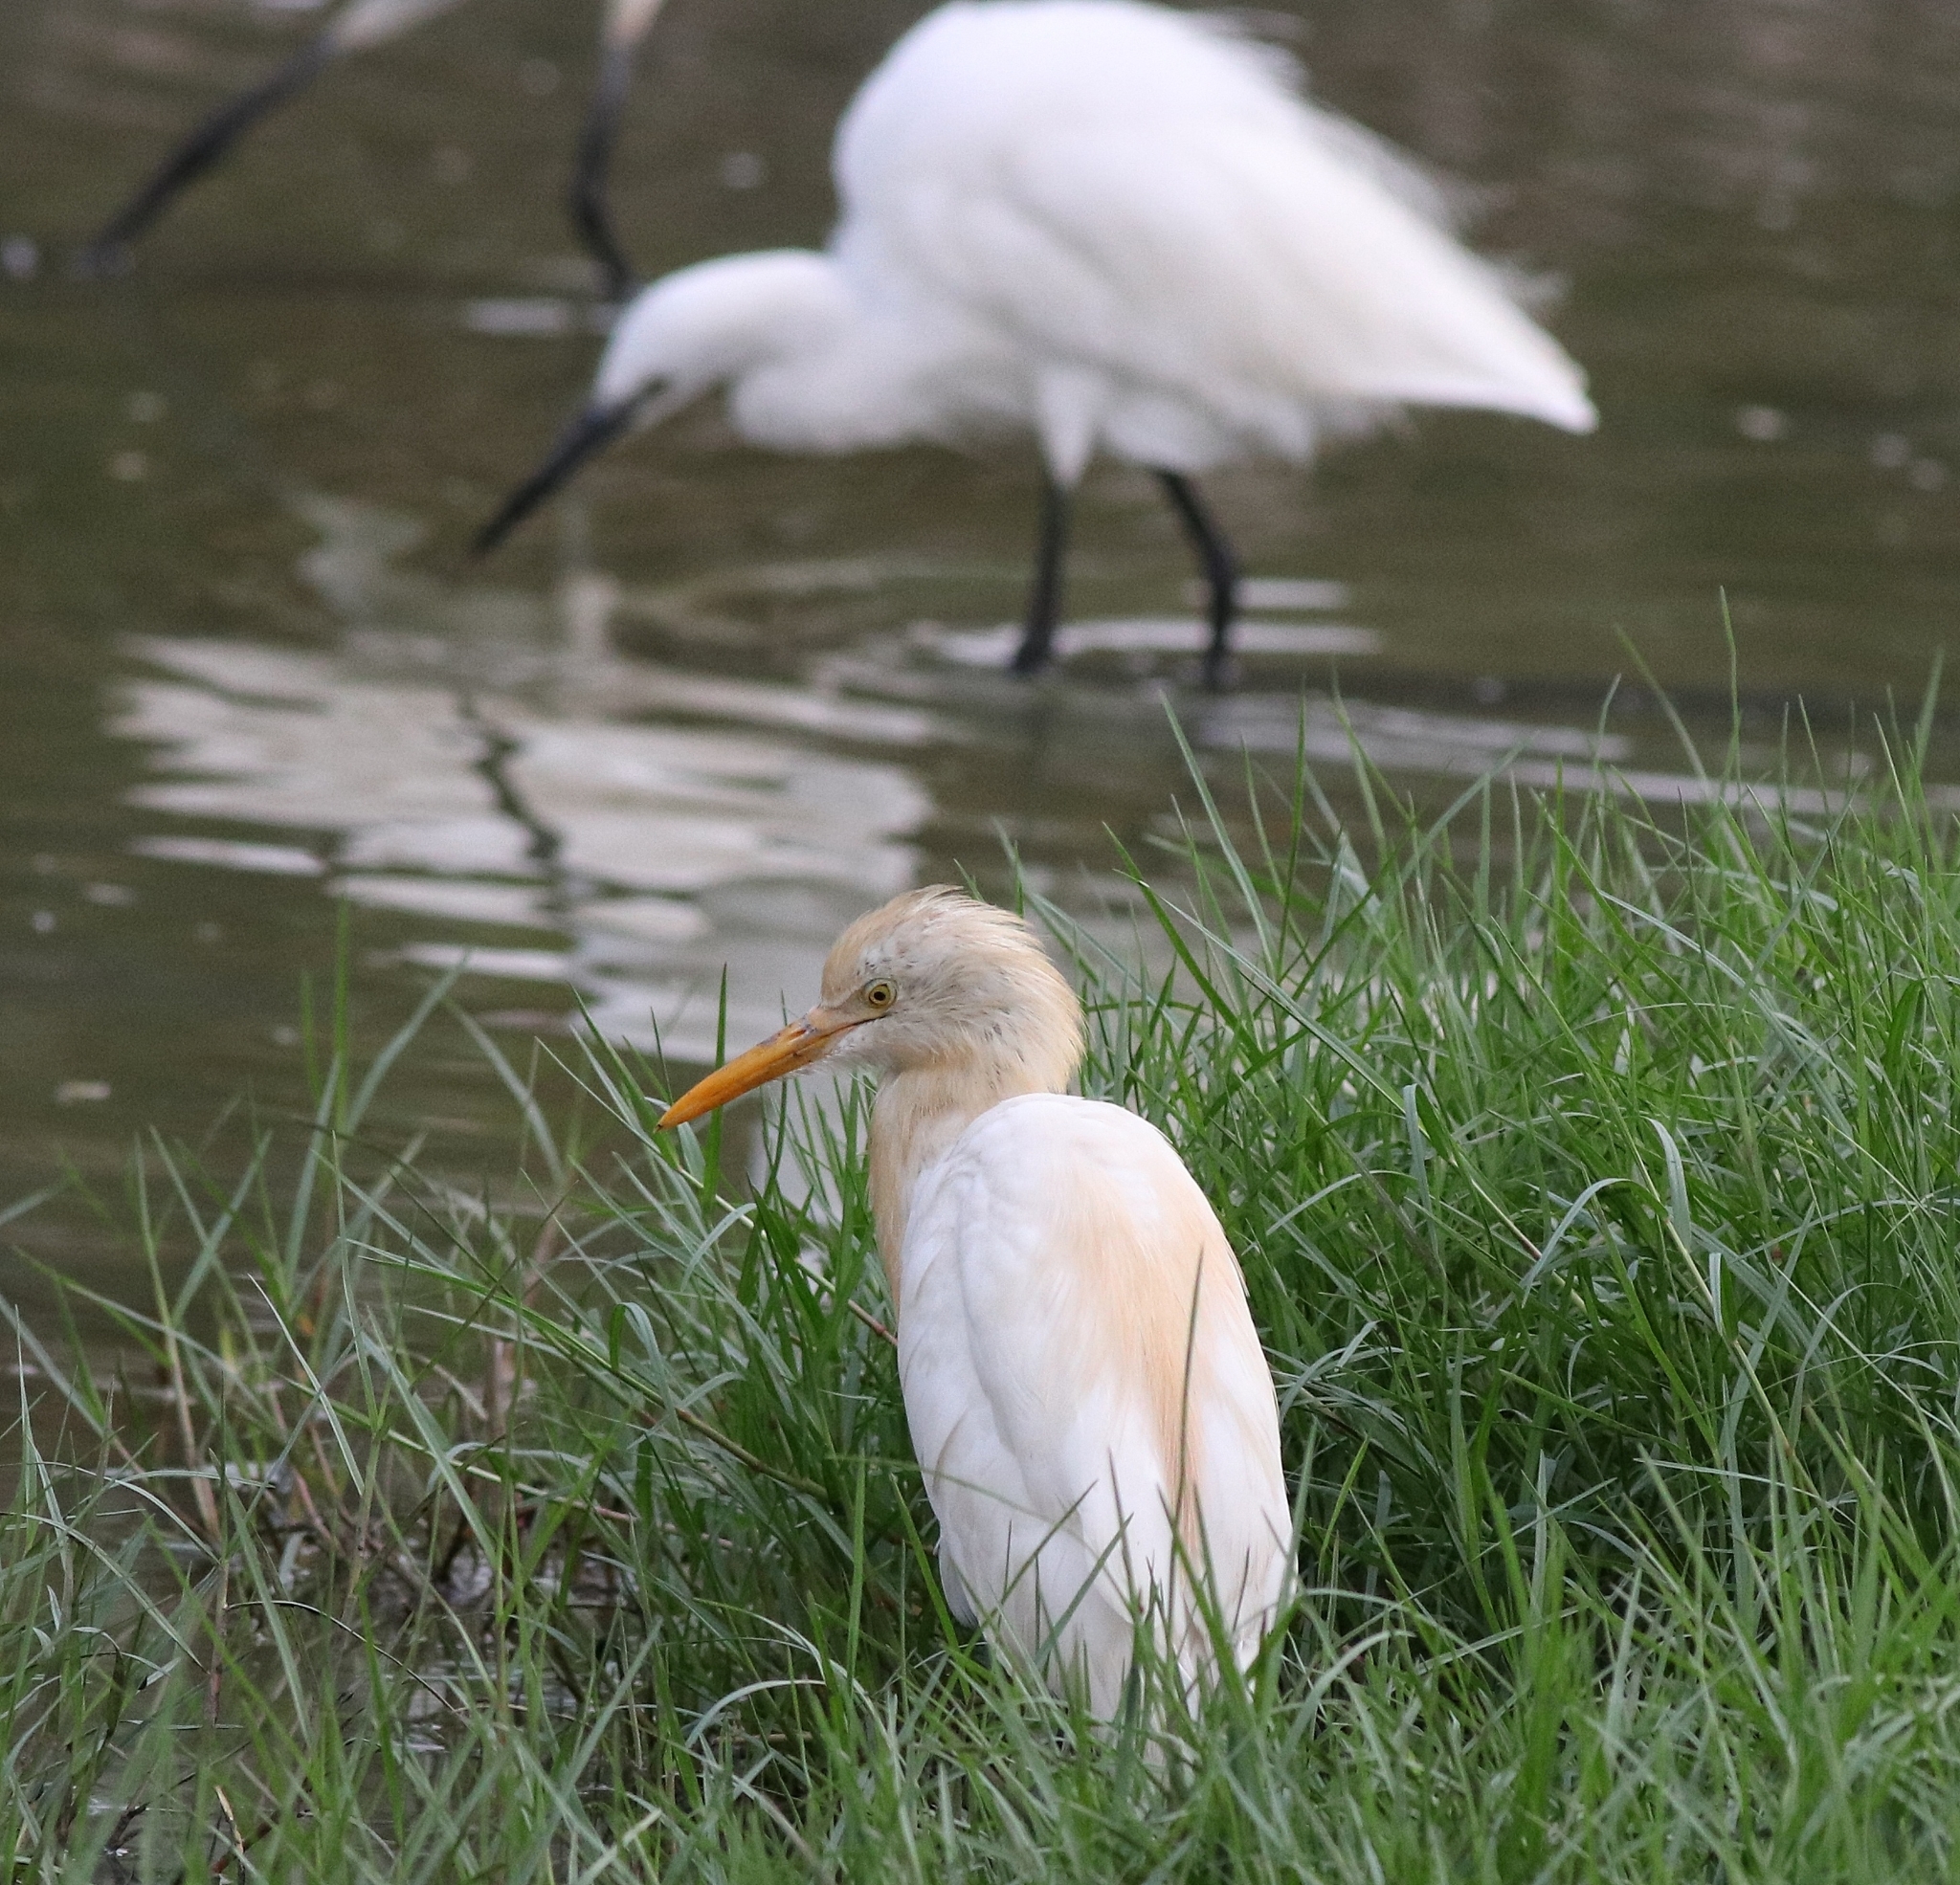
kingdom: Animalia
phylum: Chordata
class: Aves
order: Pelecaniformes
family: Ardeidae
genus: Bubulcus
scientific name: Bubulcus coromandus
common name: Eastern cattle egret
